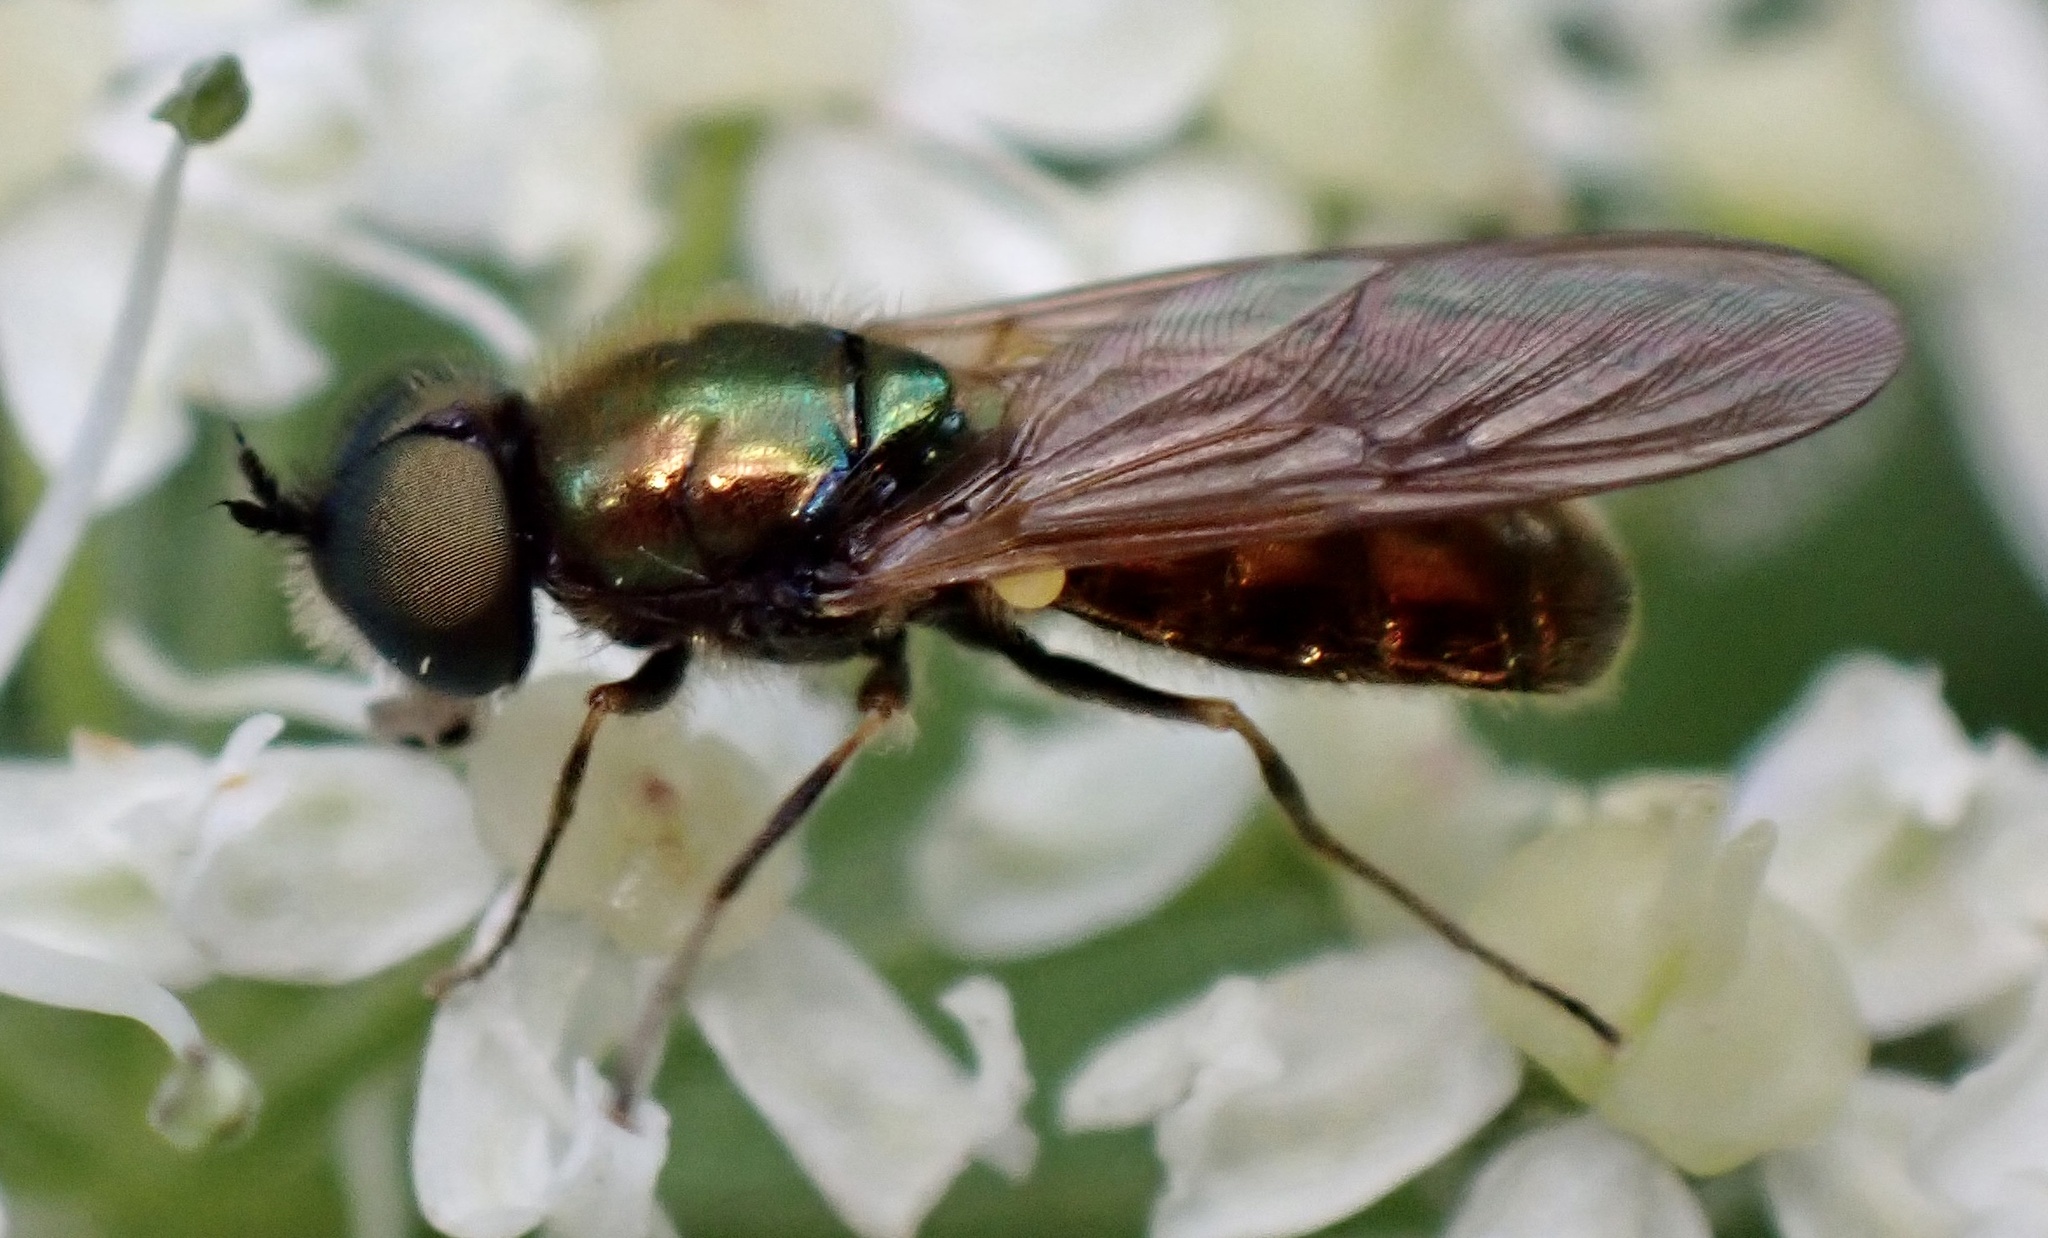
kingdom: Animalia
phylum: Arthropoda
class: Insecta
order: Diptera
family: Stratiomyidae
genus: Chloromyia
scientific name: Chloromyia formosa
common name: Soldier fly
